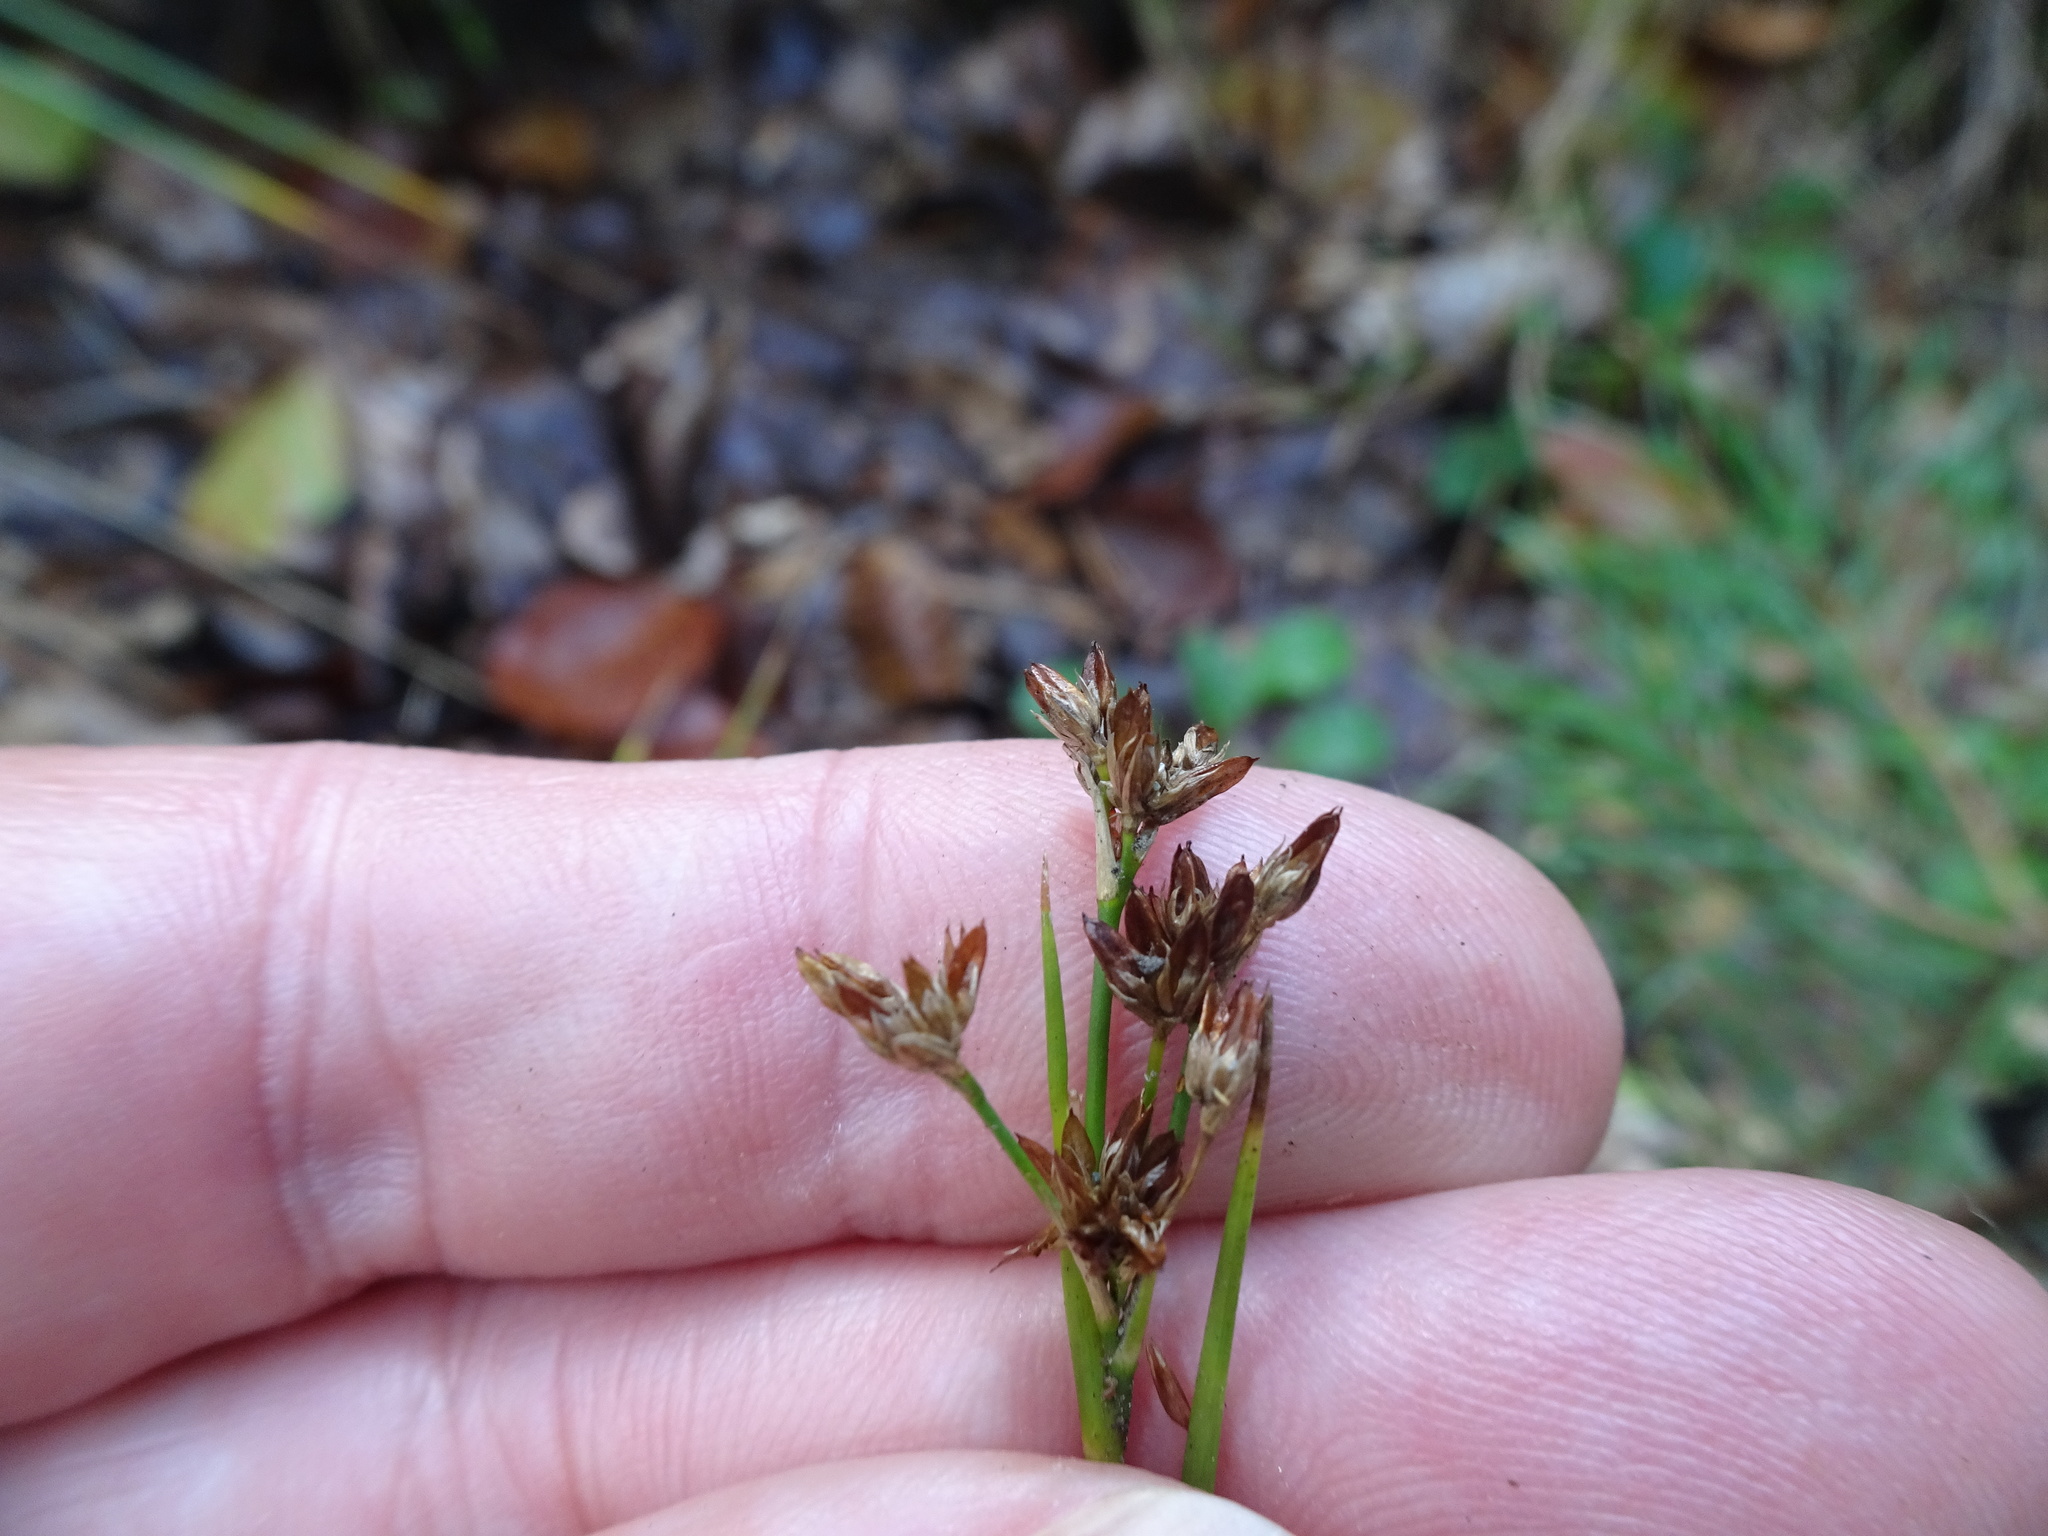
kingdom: Plantae
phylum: Tracheophyta
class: Liliopsida
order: Poales
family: Juncaceae
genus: Juncus
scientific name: Juncus articulatus
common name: Jointed rush
